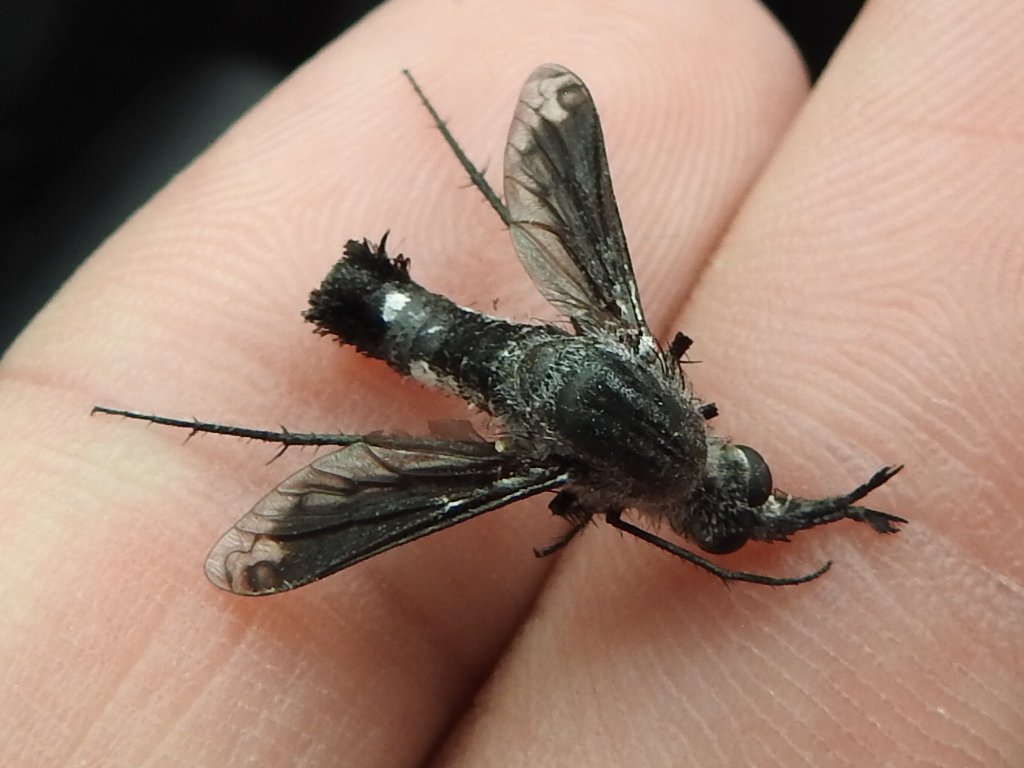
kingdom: Animalia
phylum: Arthropoda
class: Insecta
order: Diptera
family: Bombyliidae
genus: Lepidophora
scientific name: Lepidophora vetusta
